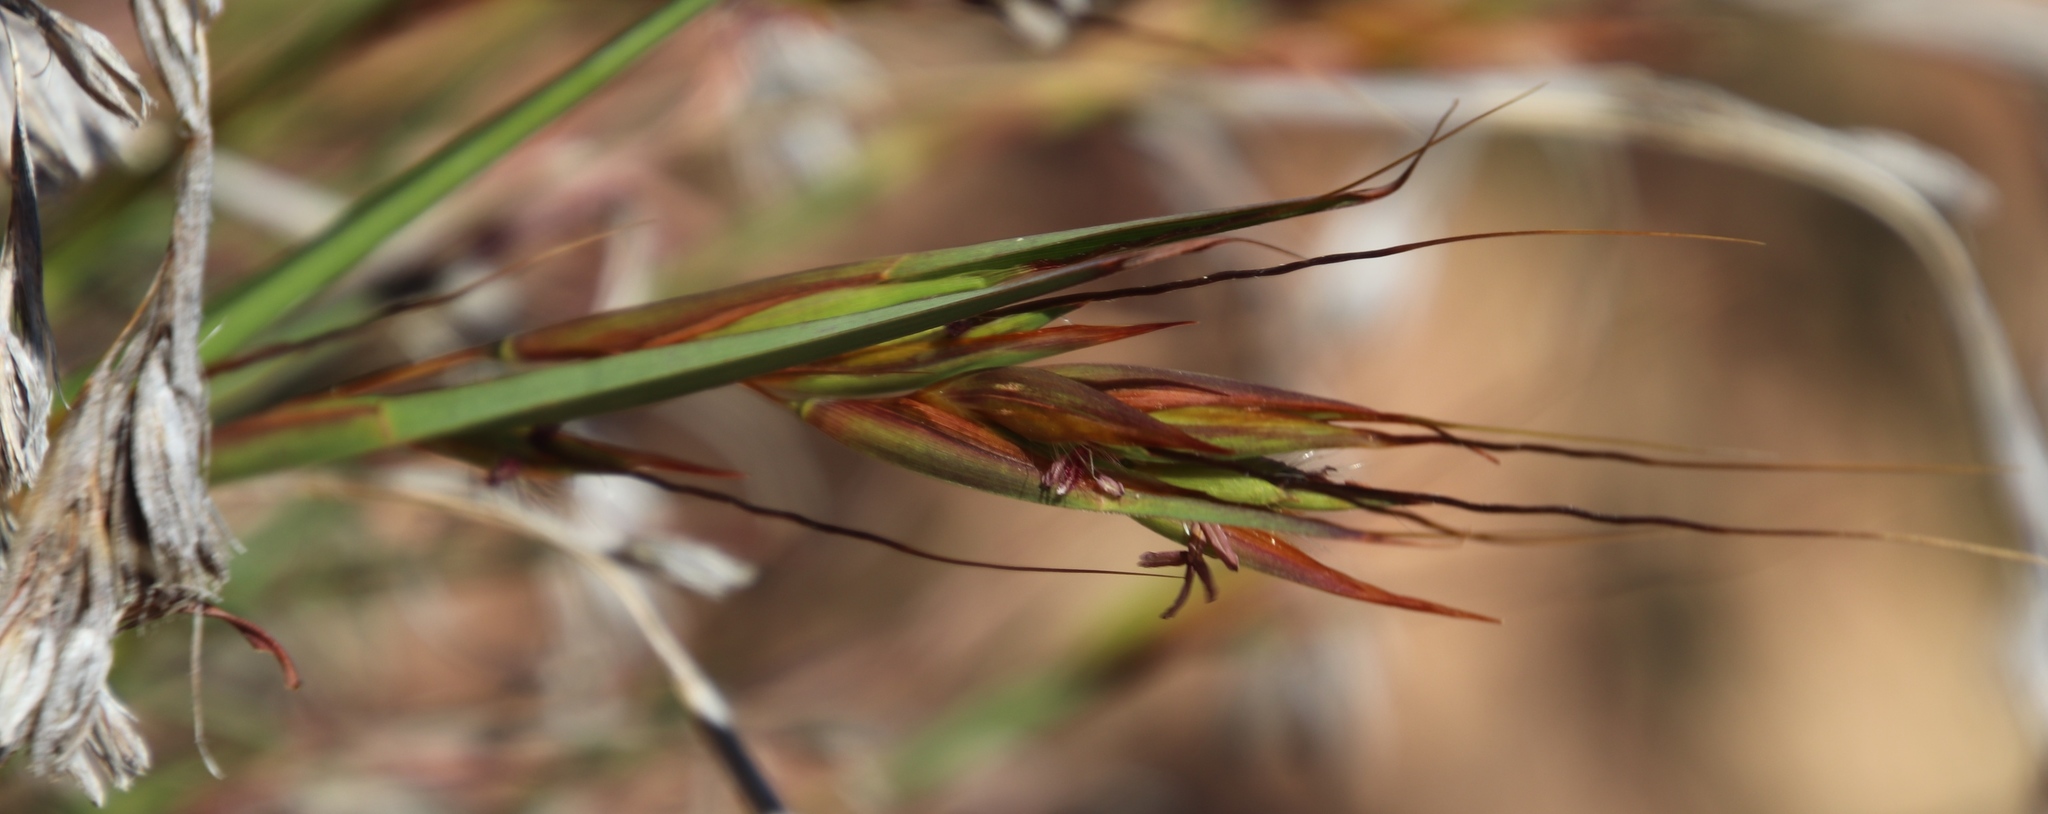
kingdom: Plantae
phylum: Tracheophyta
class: Liliopsida
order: Poales
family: Poaceae
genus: Themeda
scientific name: Themeda triandra
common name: Kangaroo grass
